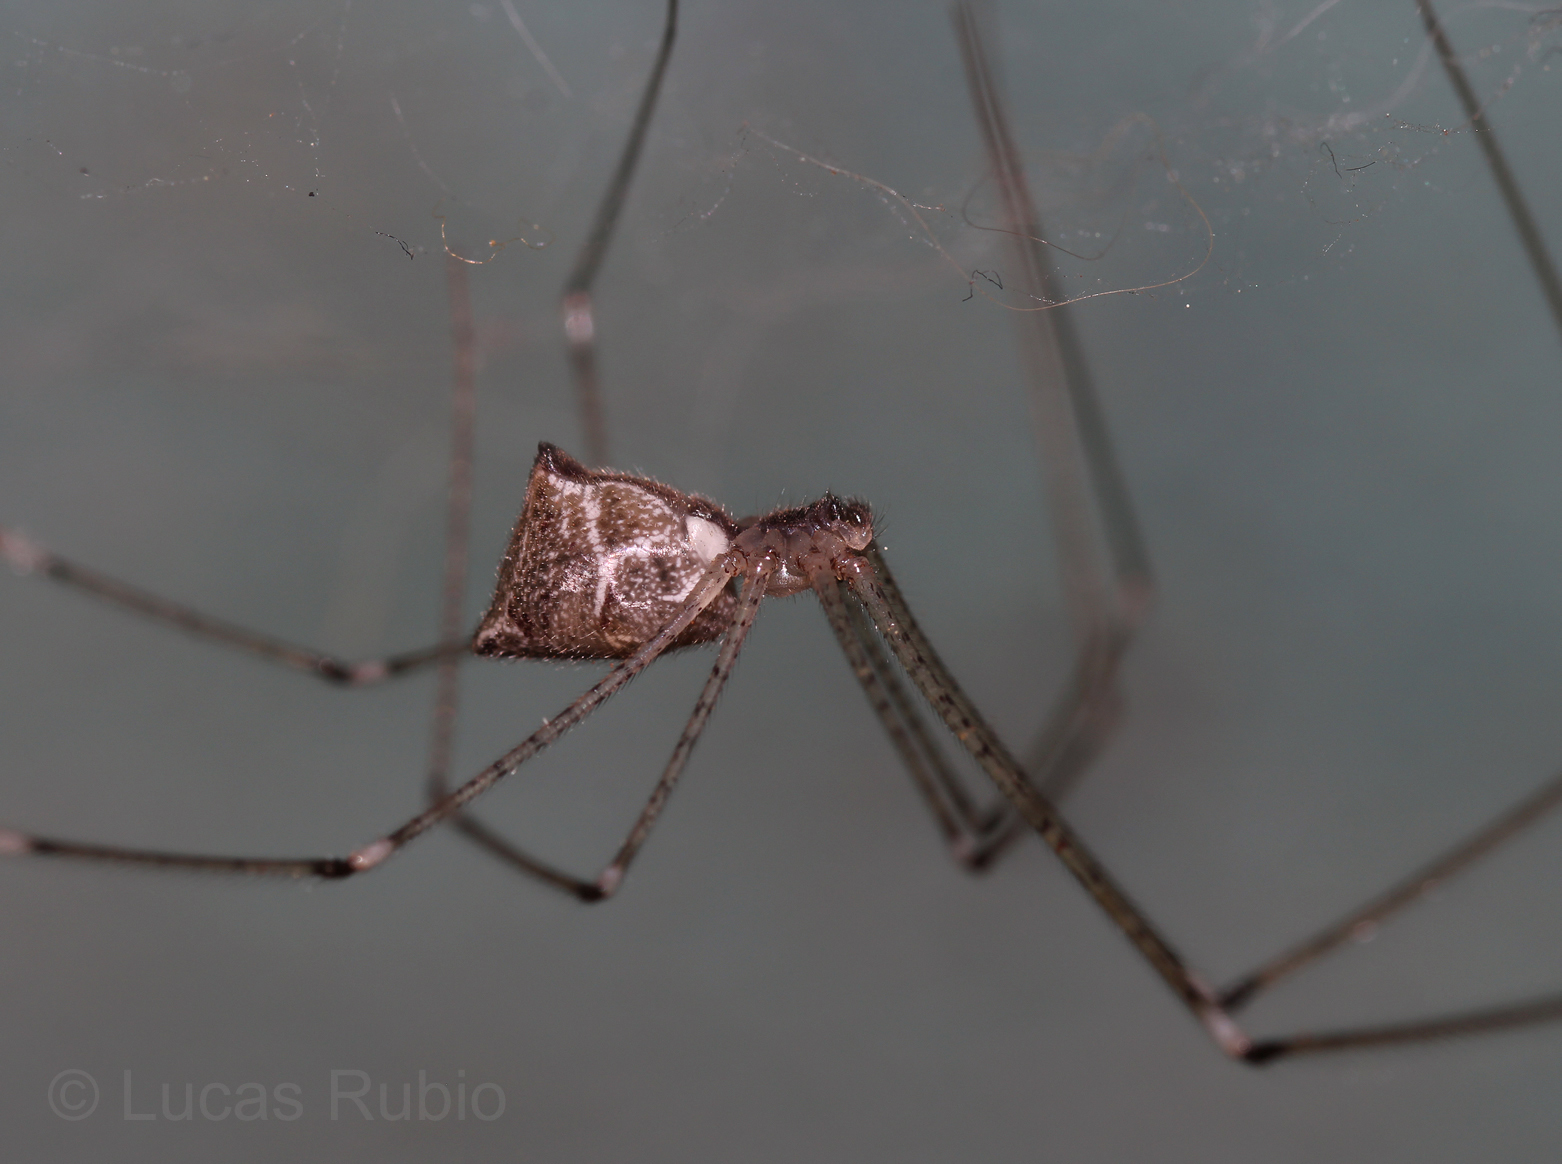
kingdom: Animalia
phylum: Arthropoda
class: Arachnida
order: Araneae
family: Pholcidae
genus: Crossopriza
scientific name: Crossopriza lyoni
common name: Cellar spiders
